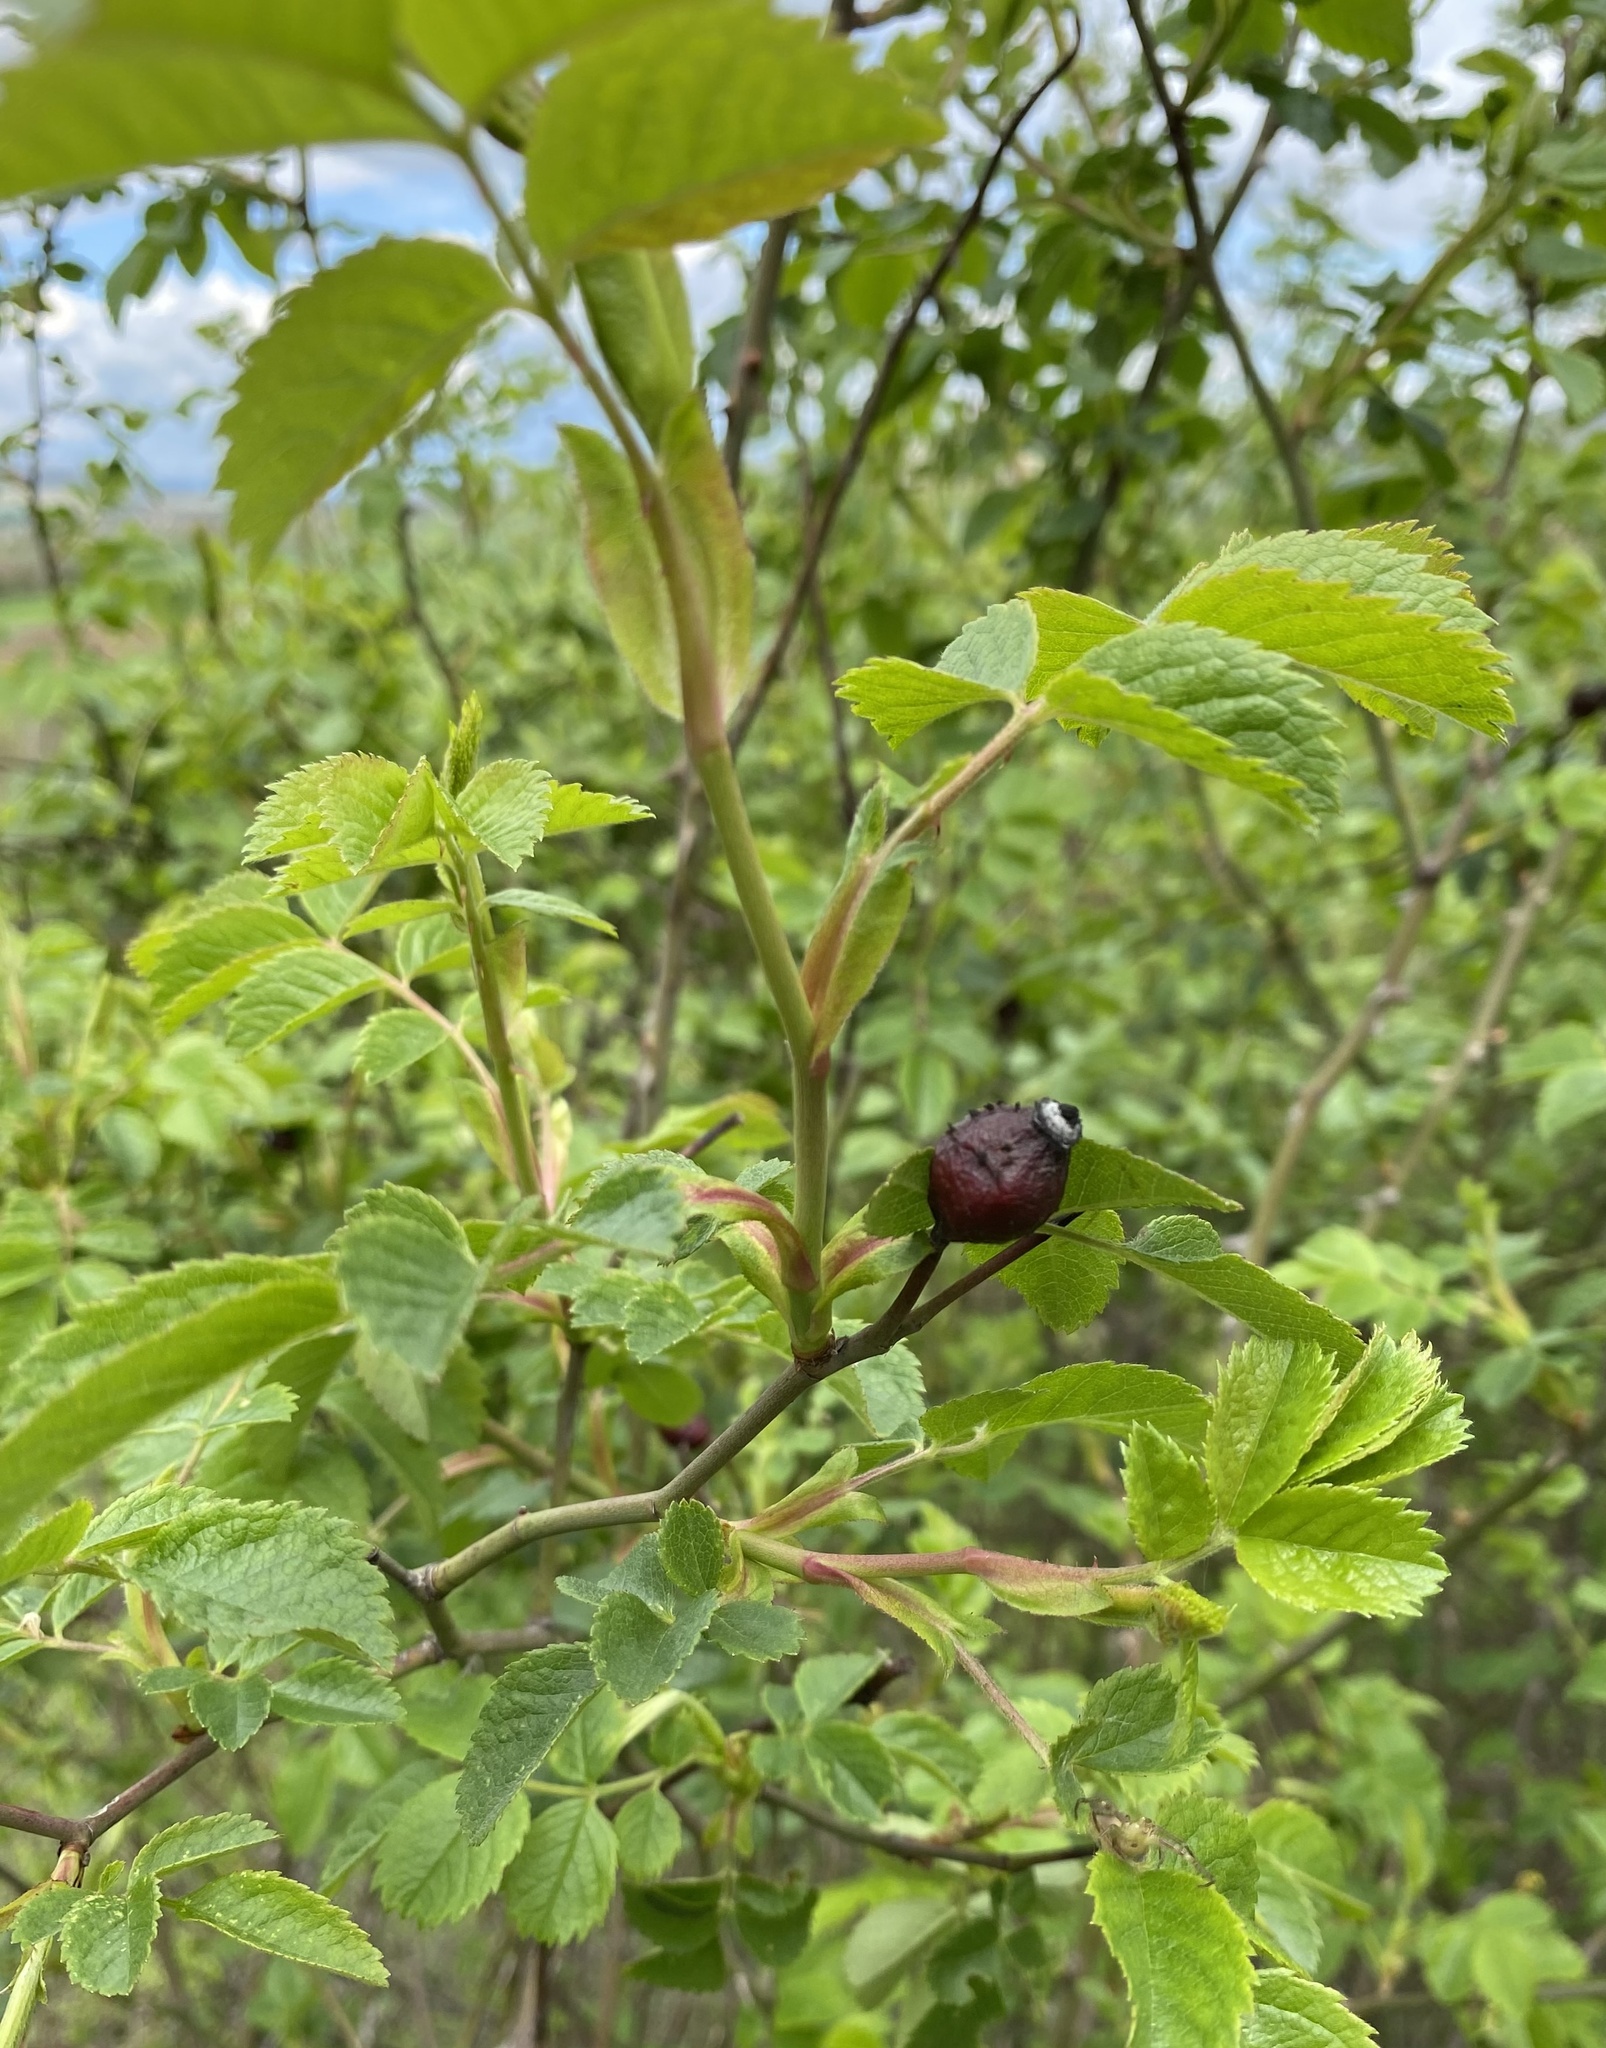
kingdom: Plantae
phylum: Tracheophyta
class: Magnoliopsida
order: Rosales
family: Rosaceae
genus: Rosa
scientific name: Rosa canina
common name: Dog rose
